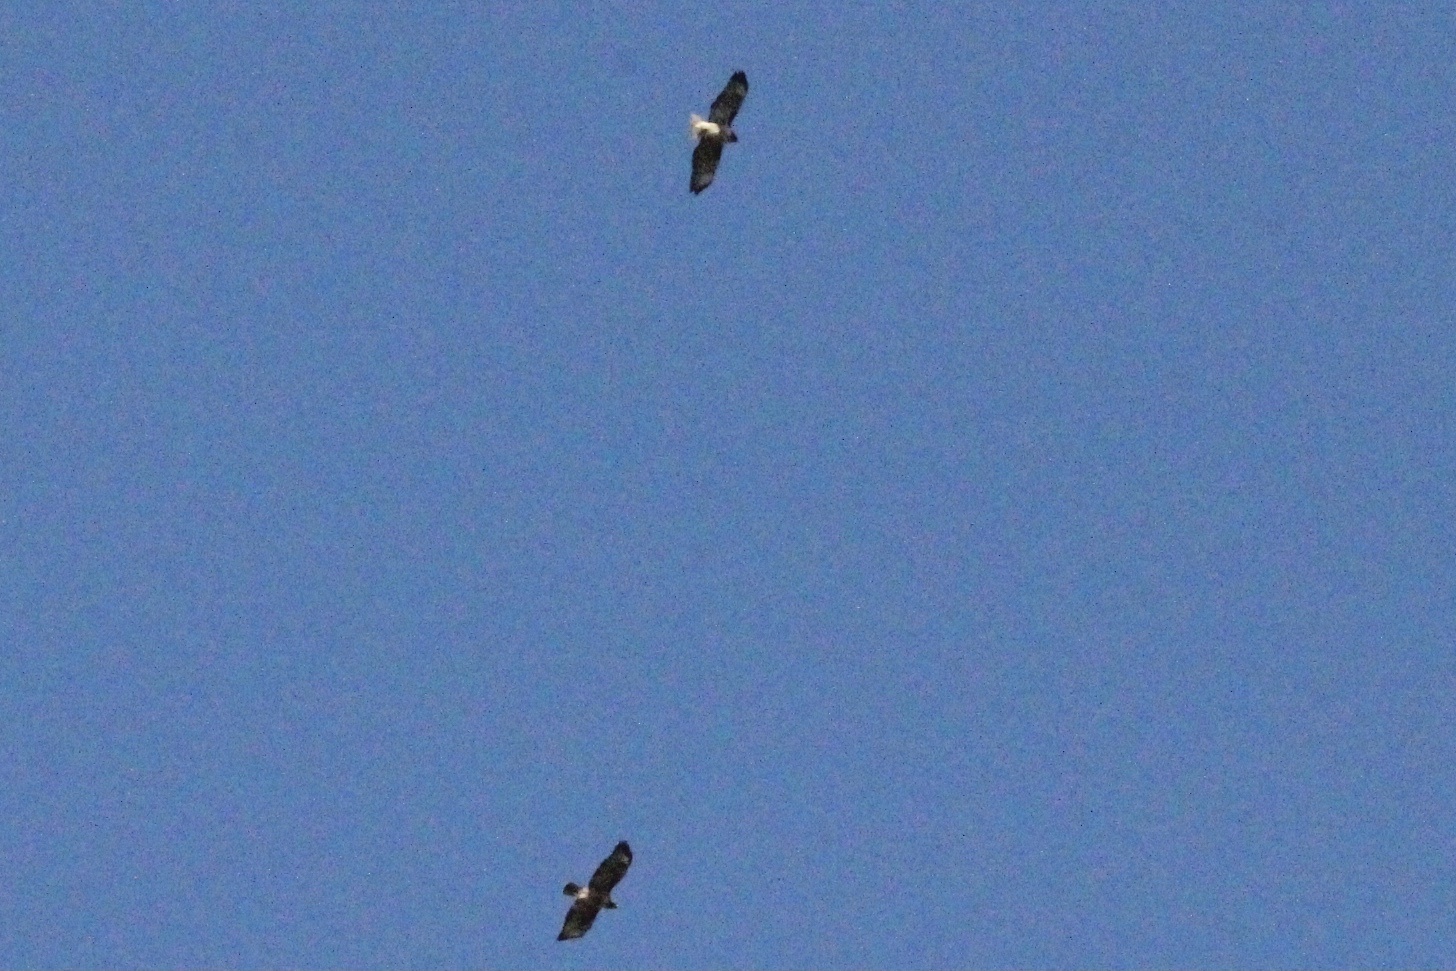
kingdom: Animalia
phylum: Chordata
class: Aves
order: Accipitriformes
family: Accipitridae
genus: Buteo
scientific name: Buteo jamaicensis
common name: Red-tailed hawk
